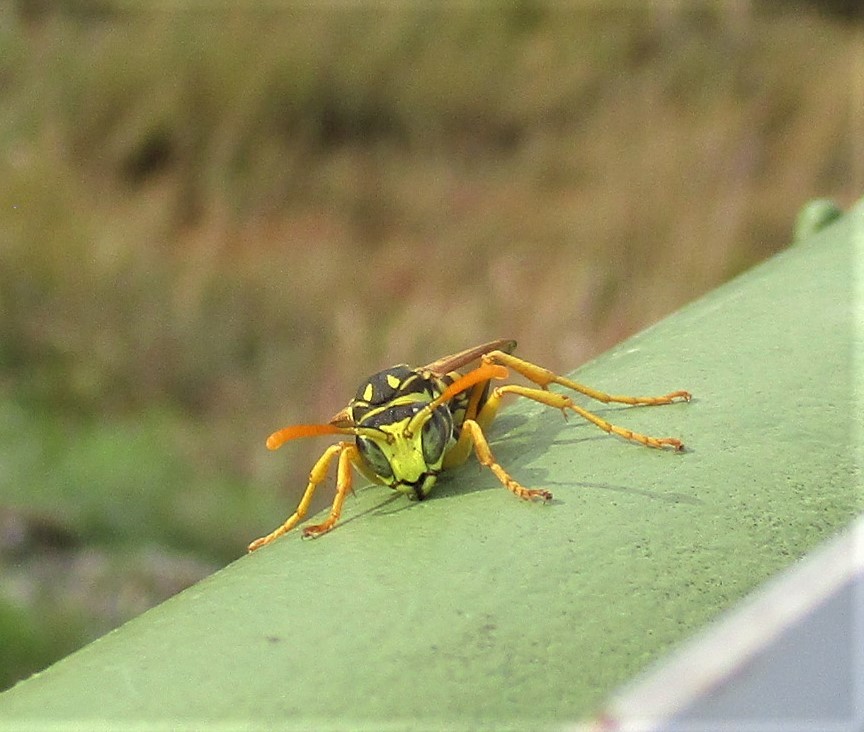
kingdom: Animalia
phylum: Arthropoda
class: Insecta
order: Hymenoptera
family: Eumenidae
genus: Polistes
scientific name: Polistes dominula
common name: Paper wasp
